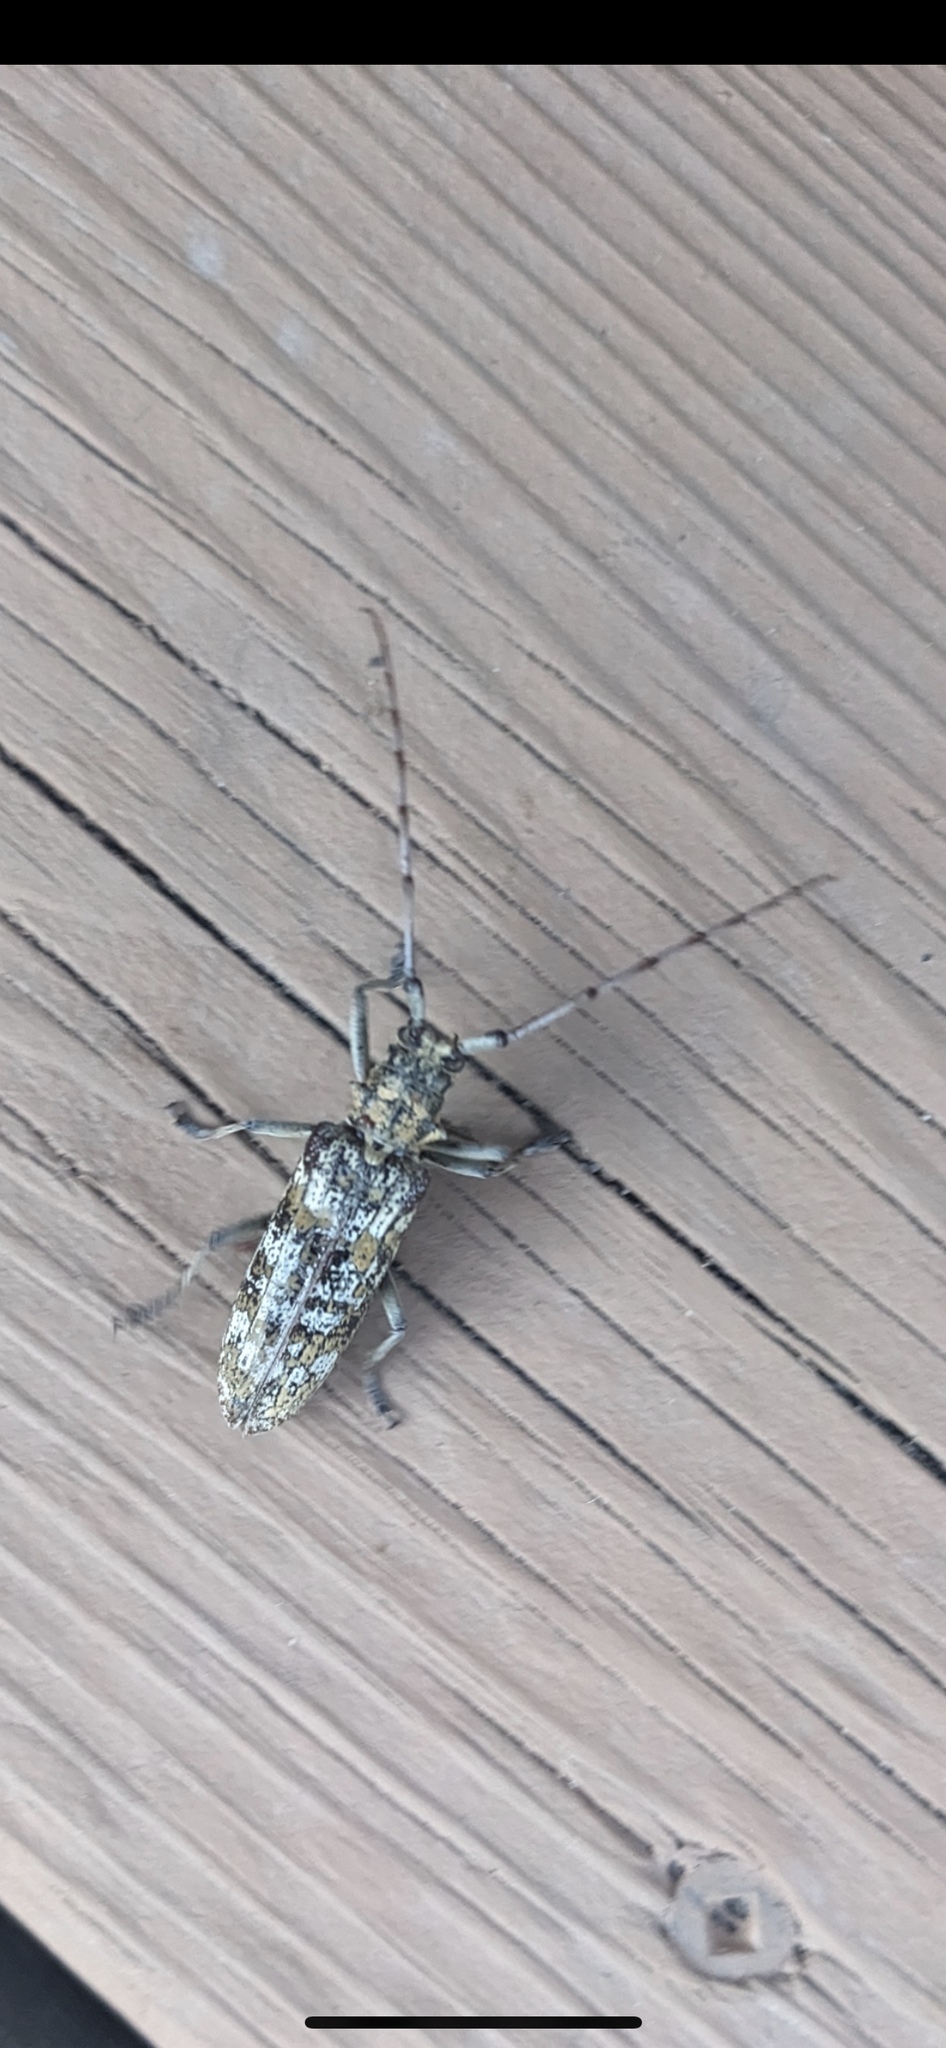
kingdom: Animalia
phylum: Arthropoda
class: Insecta
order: Coleoptera
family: Cerambycidae
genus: Monochamus
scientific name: Monochamus marmorator
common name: Balsam fir sawyer
